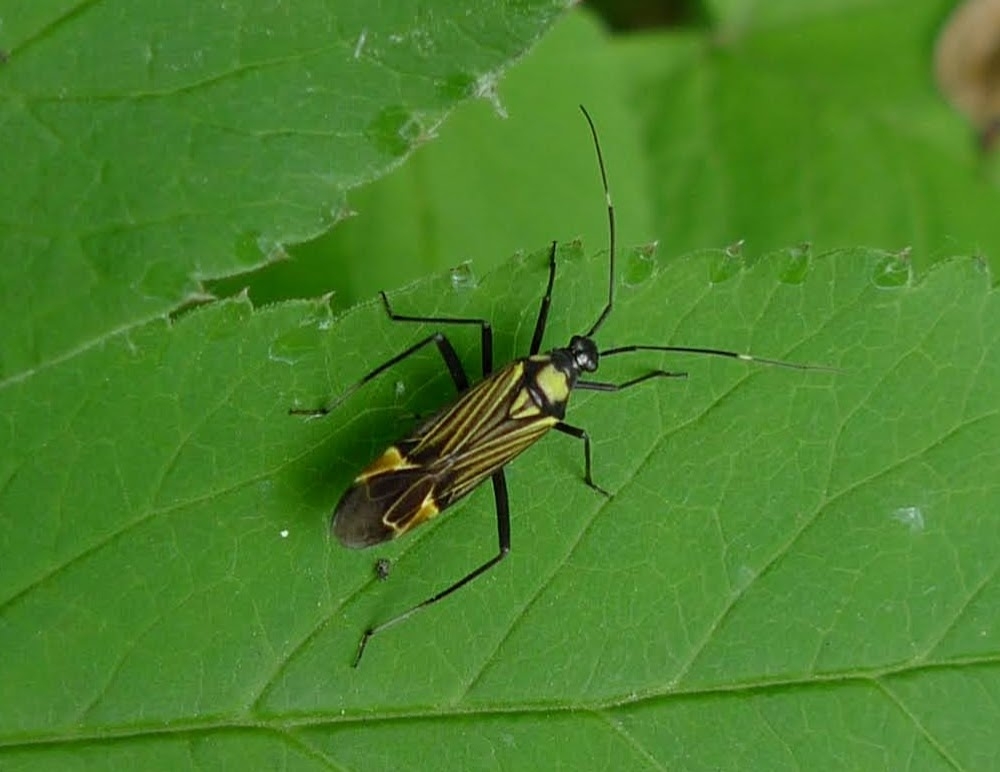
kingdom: Animalia
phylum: Arthropoda
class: Insecta
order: Hemiptera
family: Miridae
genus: Miris
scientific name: Miris striatus
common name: Fine streaked bugkin
